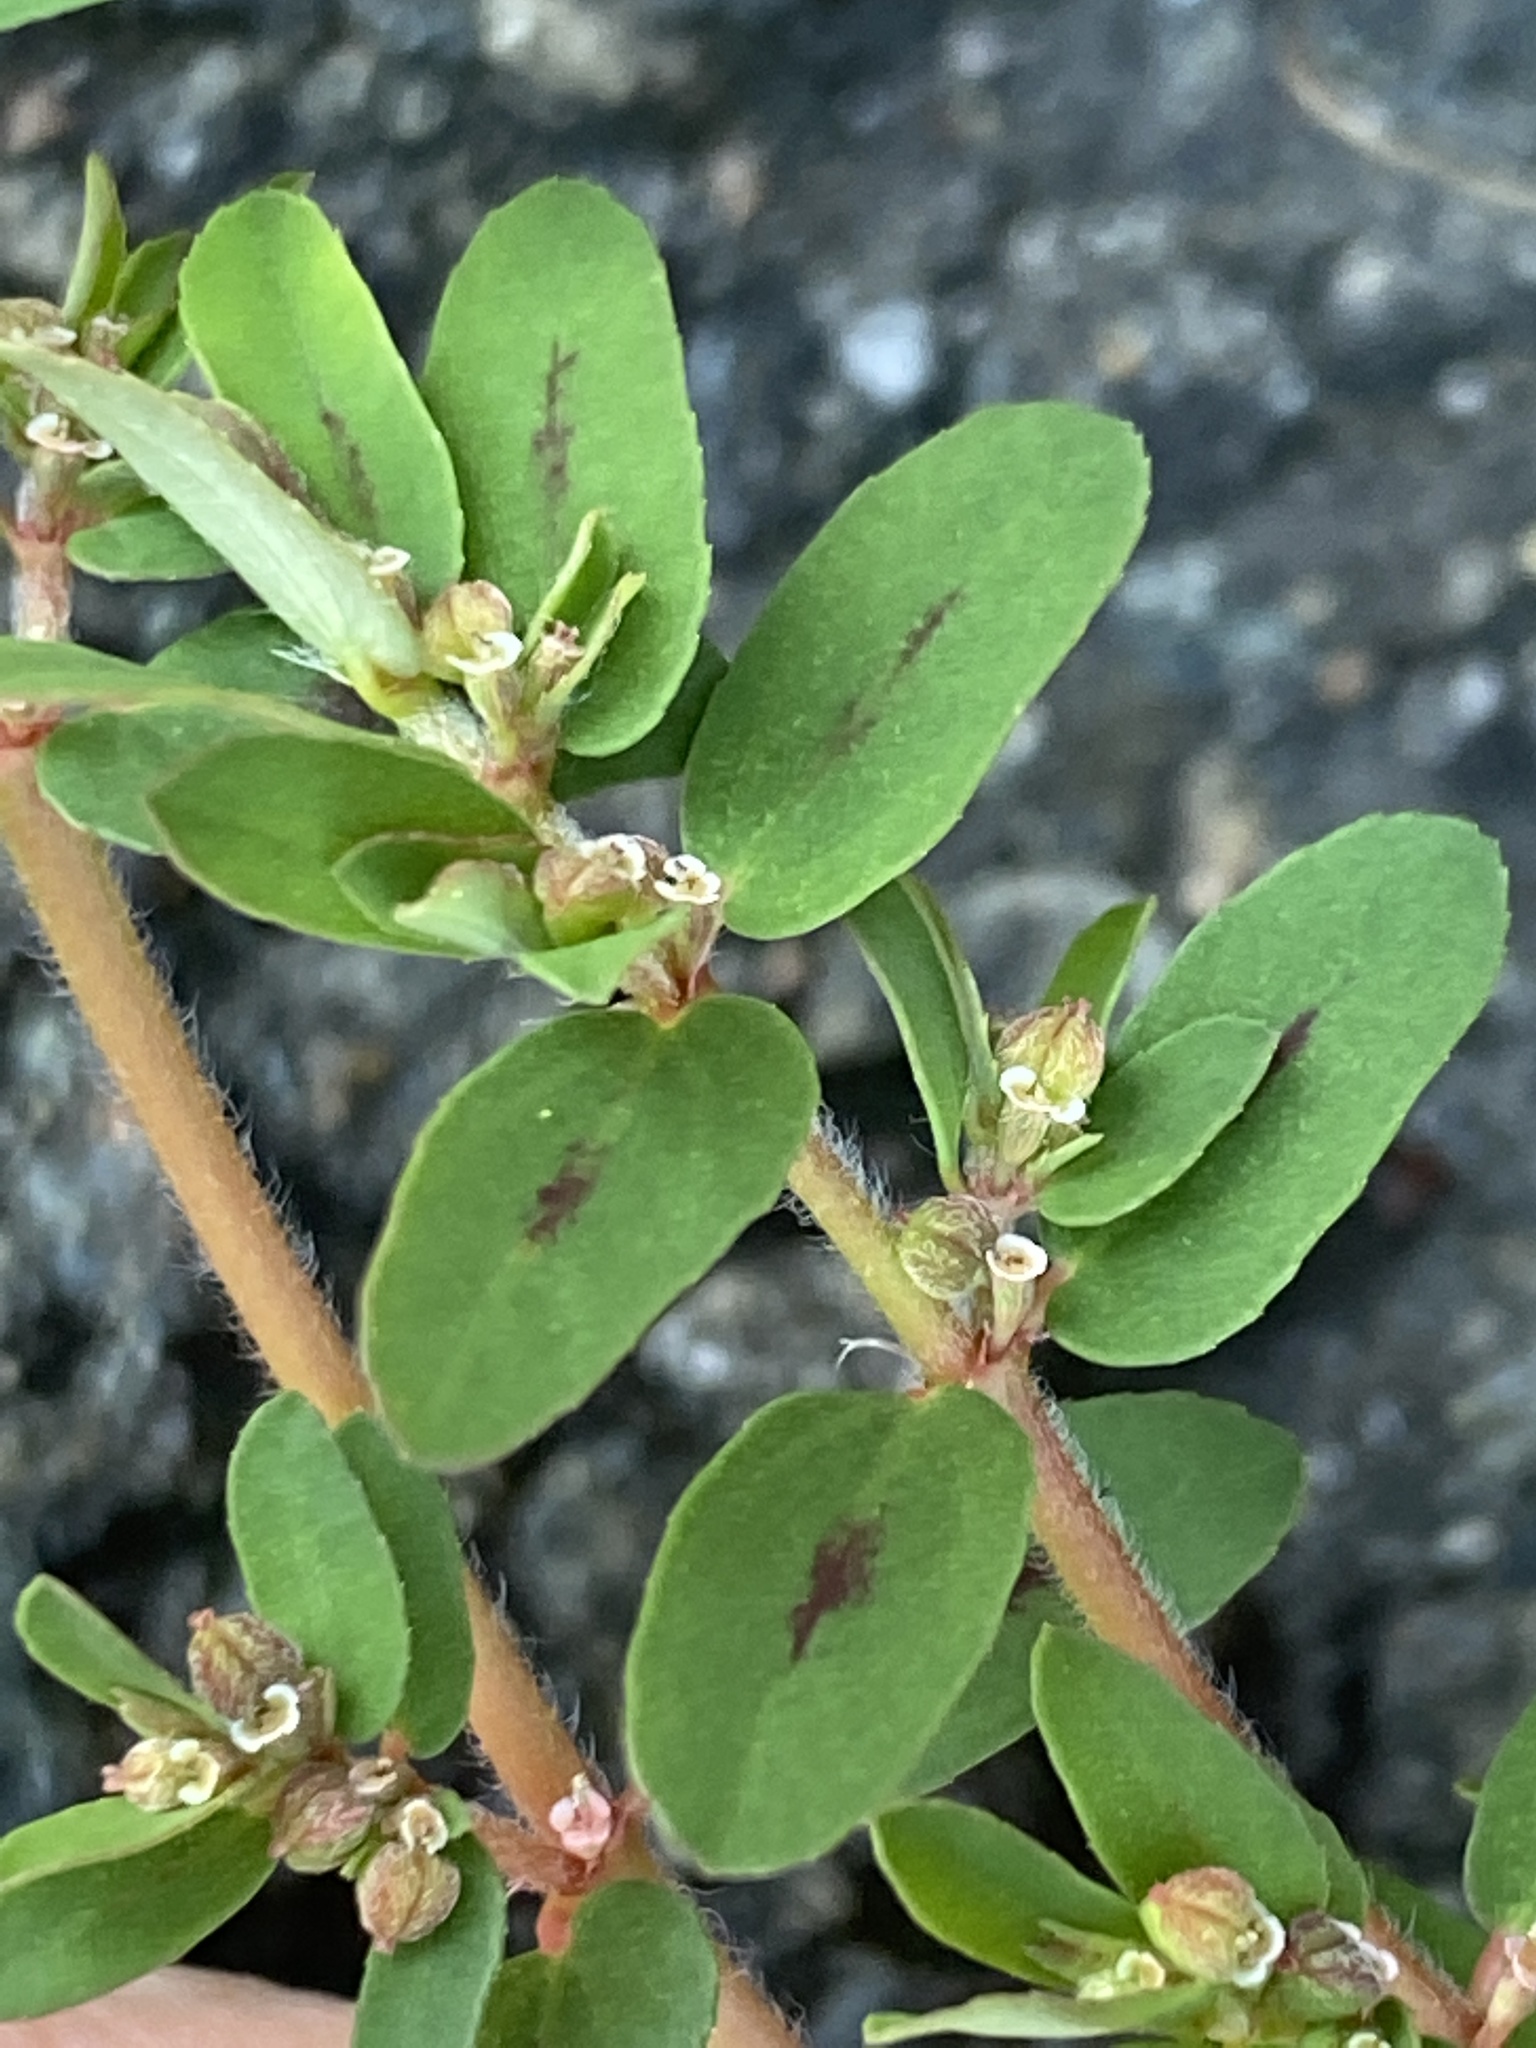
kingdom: Plantae
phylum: Tracheophyta
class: Magnoliopsida
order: Malpighiales
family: Euphorbiaceae
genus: Euphorbia
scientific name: Euphorbia maculata
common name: Spotted spurge
